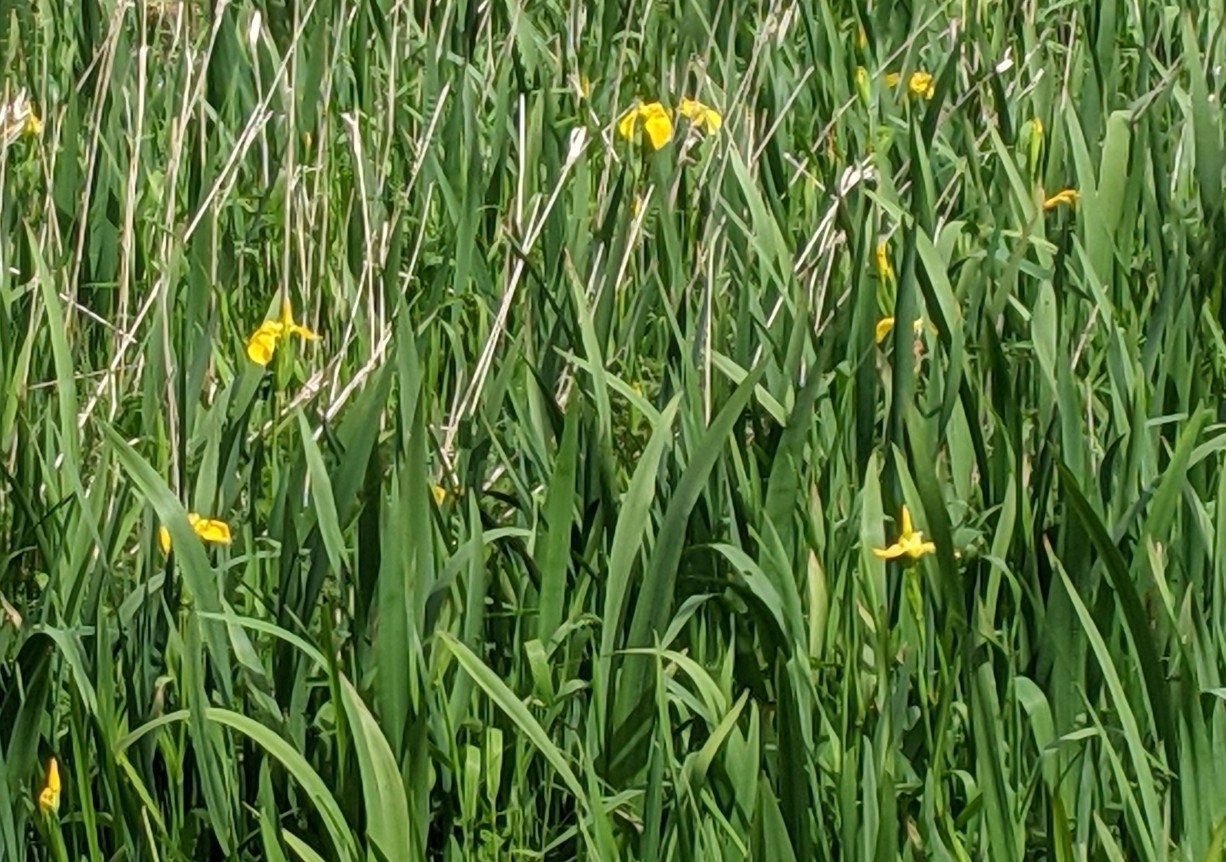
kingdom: Plantae
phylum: Tracheophyta
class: Liliopsida
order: Asparagales
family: Iridaceae
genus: Iris
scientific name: Iris pseudacorus
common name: Yellow flag
